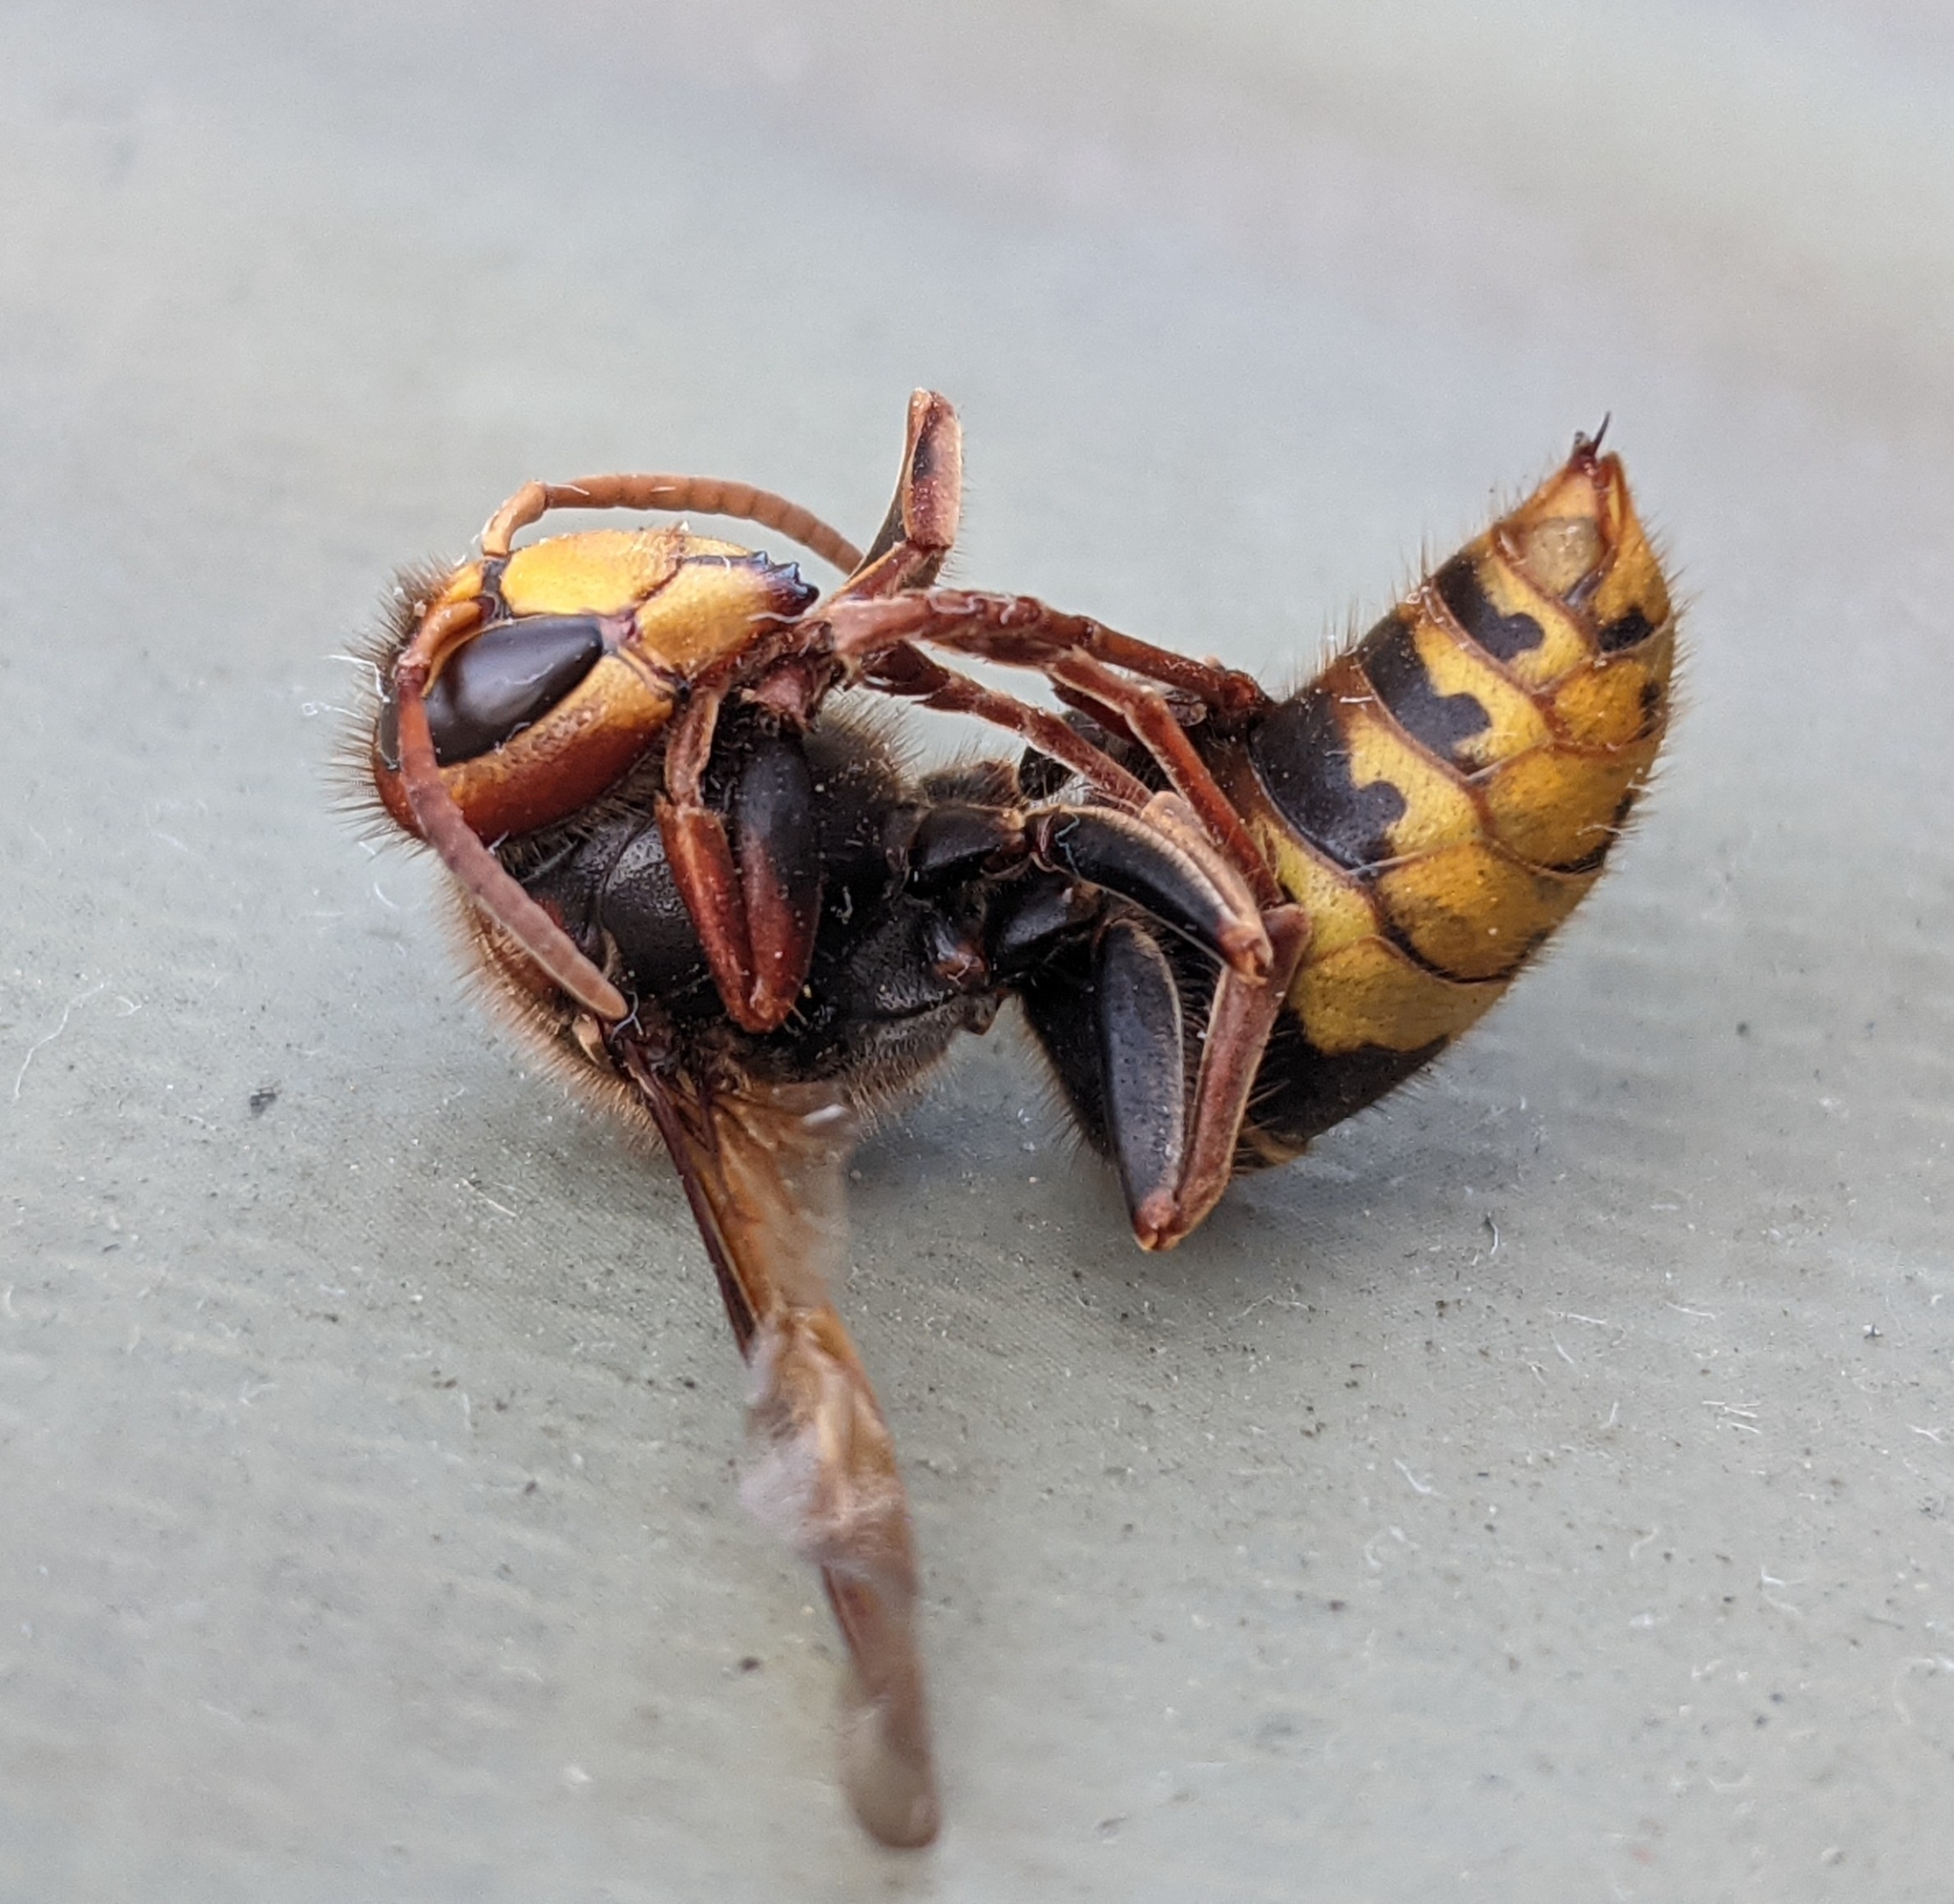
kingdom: Animalia
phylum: Arthropoda
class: Insecta
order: Hymenoptera
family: Vespidae
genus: Vespa
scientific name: Vespa crabro
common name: Hornet
